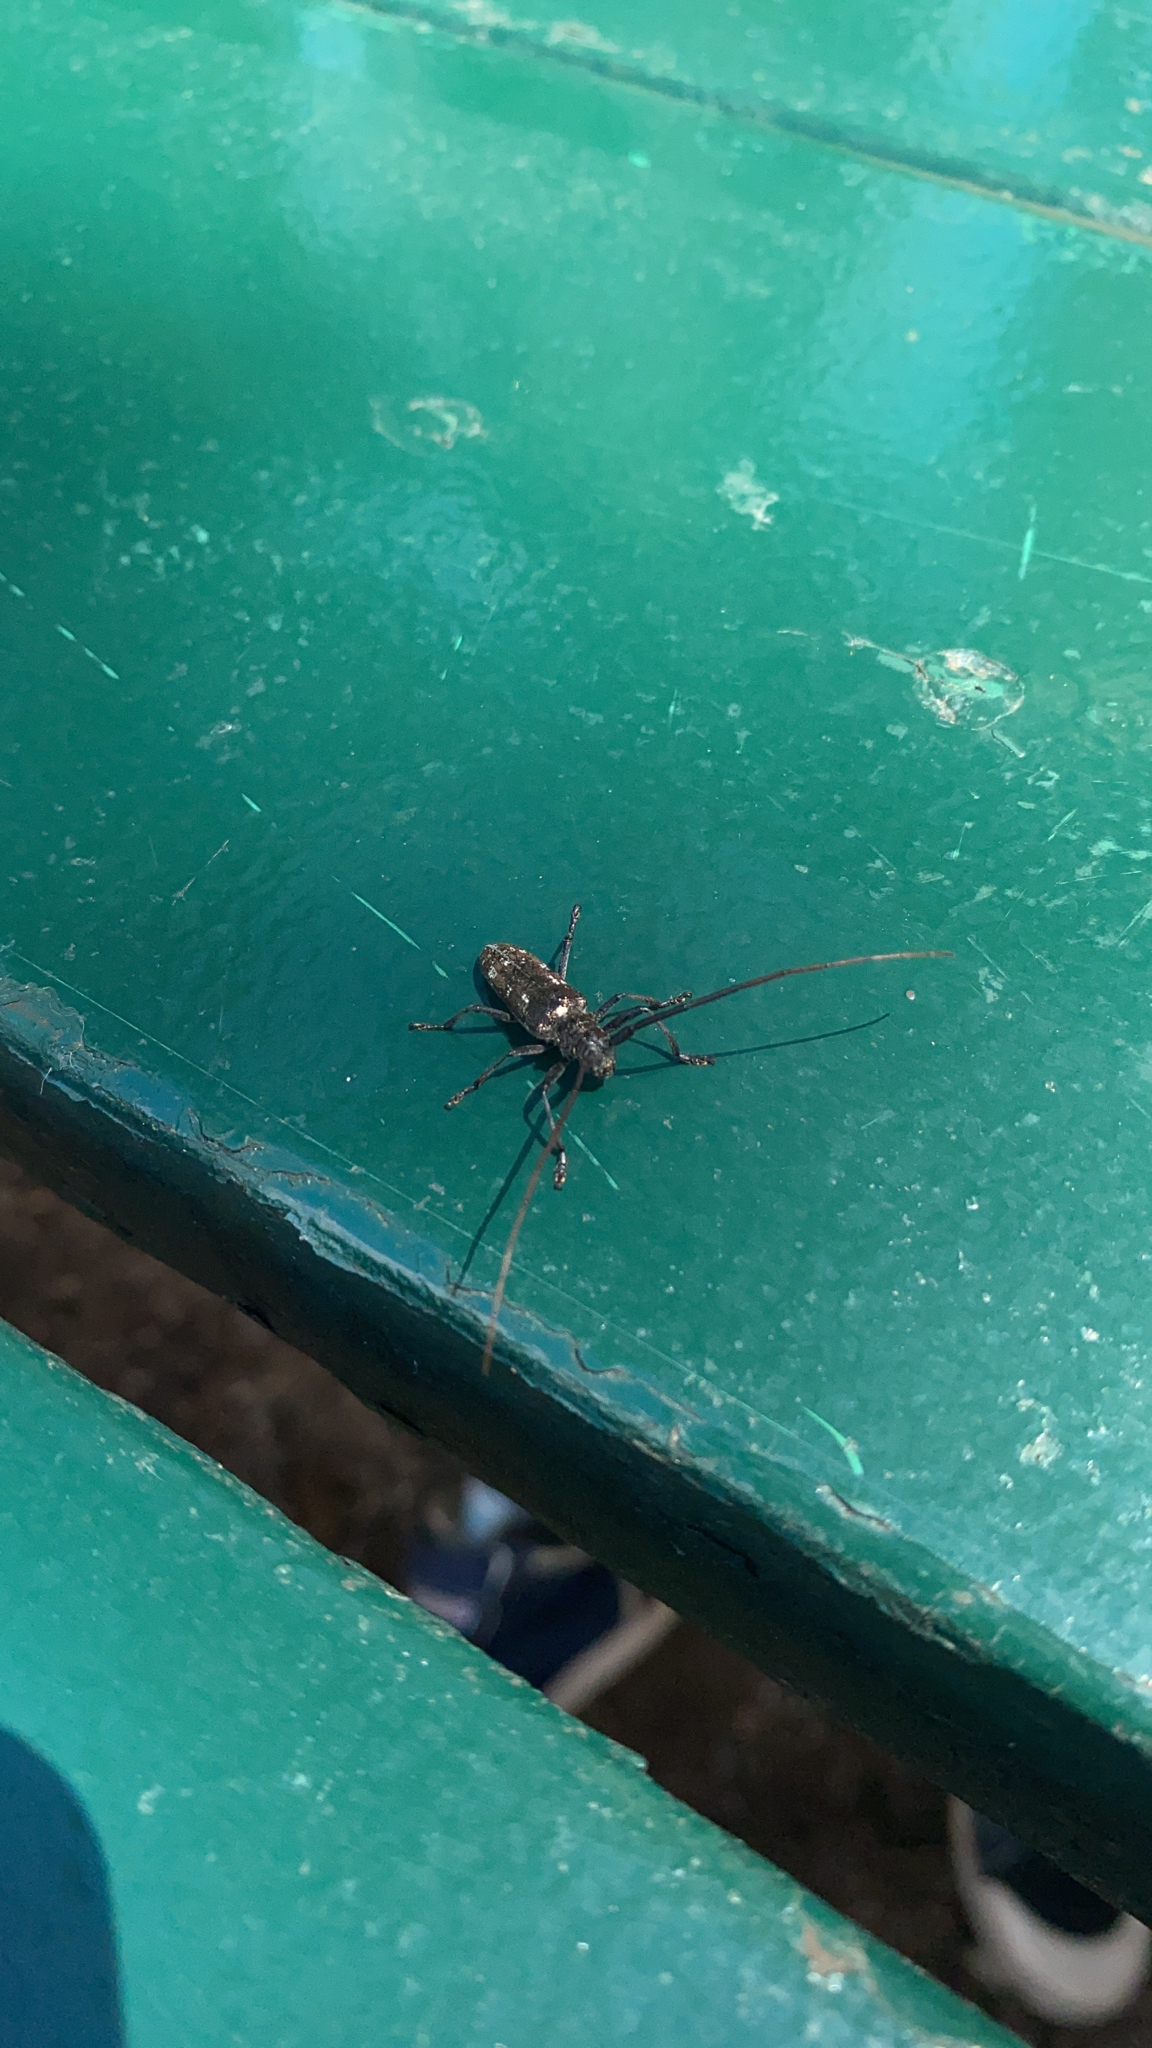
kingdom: Animalia
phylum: Arthropoda
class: Insecta
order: Coleoptera
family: Cerambycidae
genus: Monochamus
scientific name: Monochamus scutellatus
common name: White-spotted sawyer beetle
